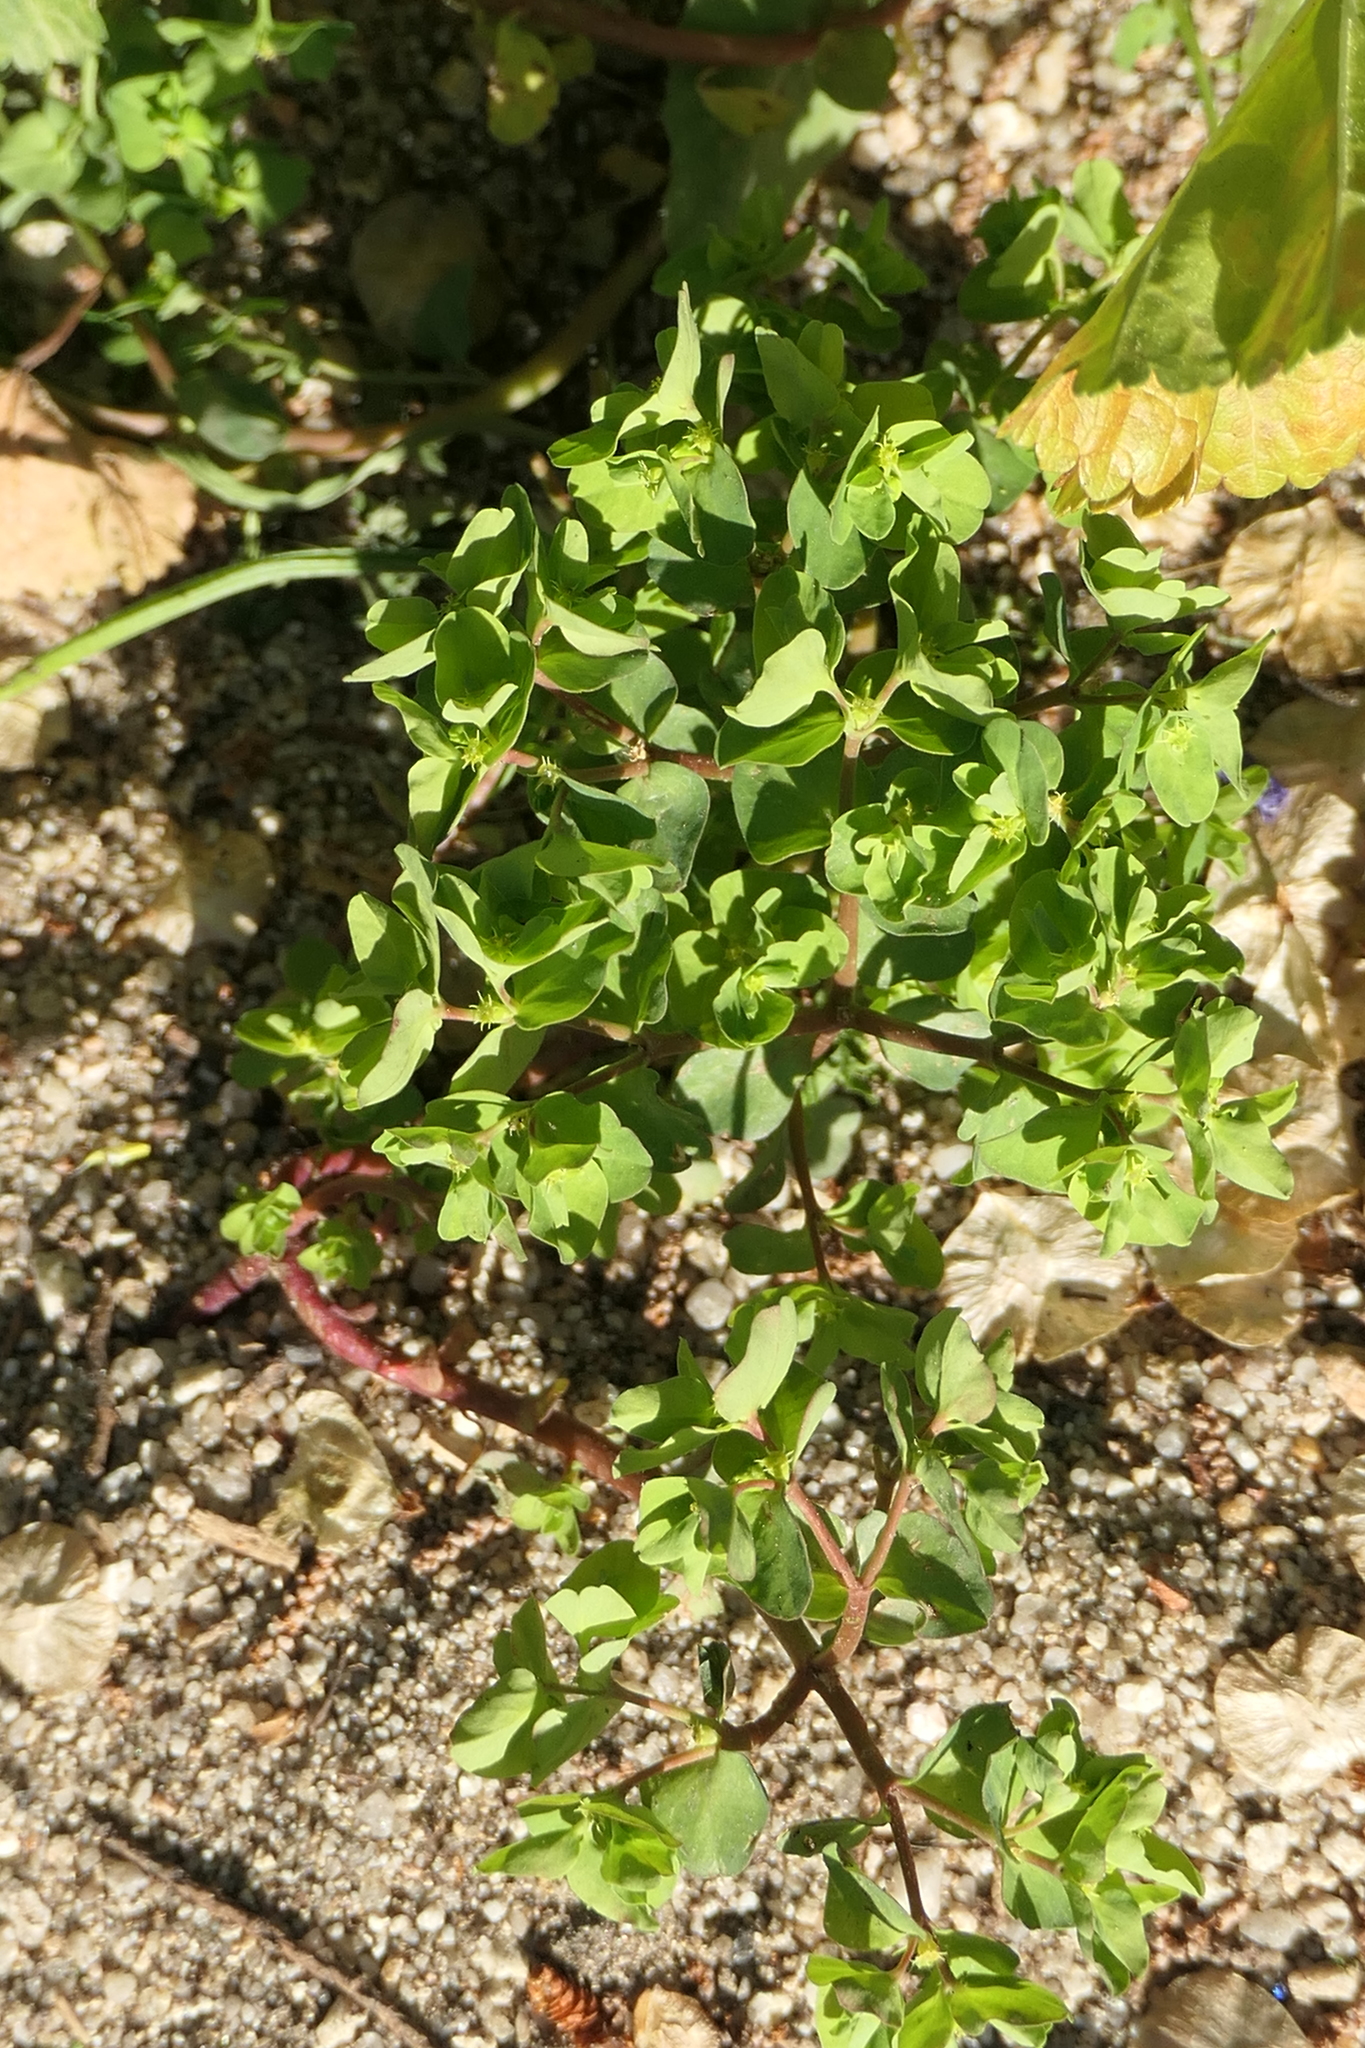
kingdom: Plantae
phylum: Tracheophyta
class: Magnoliopsida
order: Malpighiales
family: Euphorbiaceae
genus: Euphorbia
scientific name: Euphorbia peplus
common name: Petty spurge
